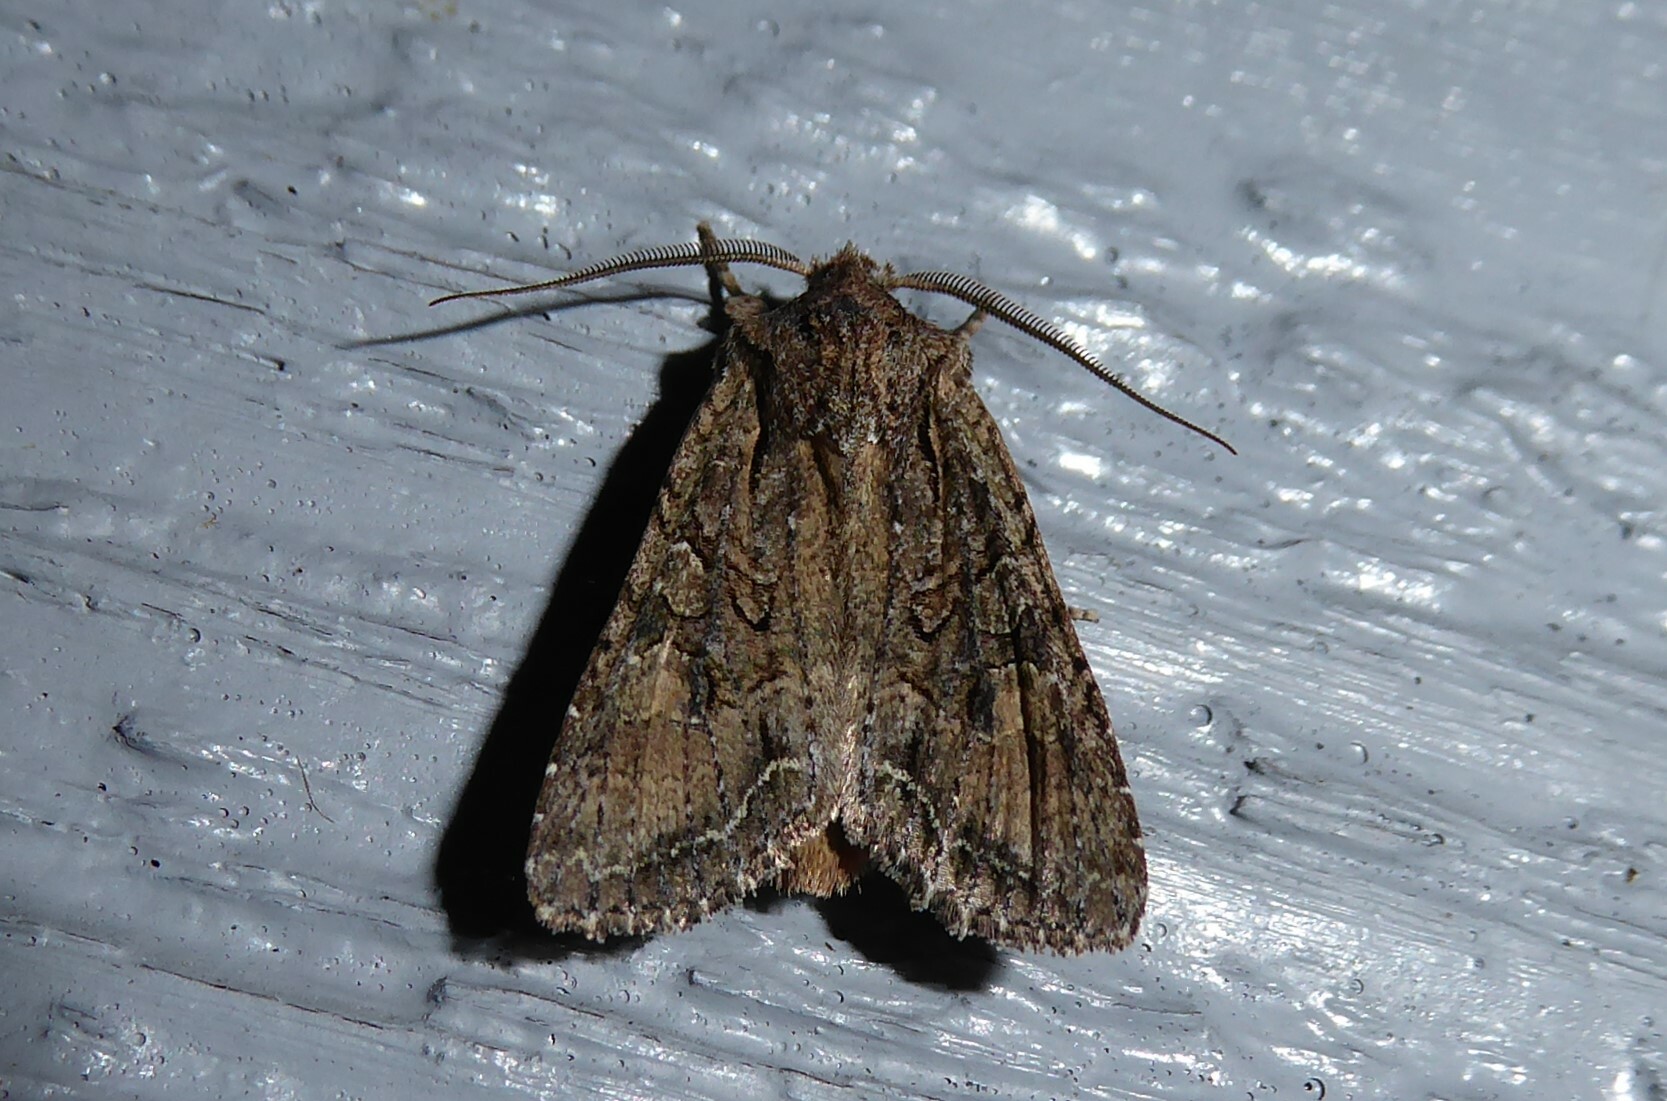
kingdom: Animalia
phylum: Arthropoda
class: Insecta
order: Lepidoptera
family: Noctuidae
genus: Ichneutica
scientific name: Ichneutica mutans
